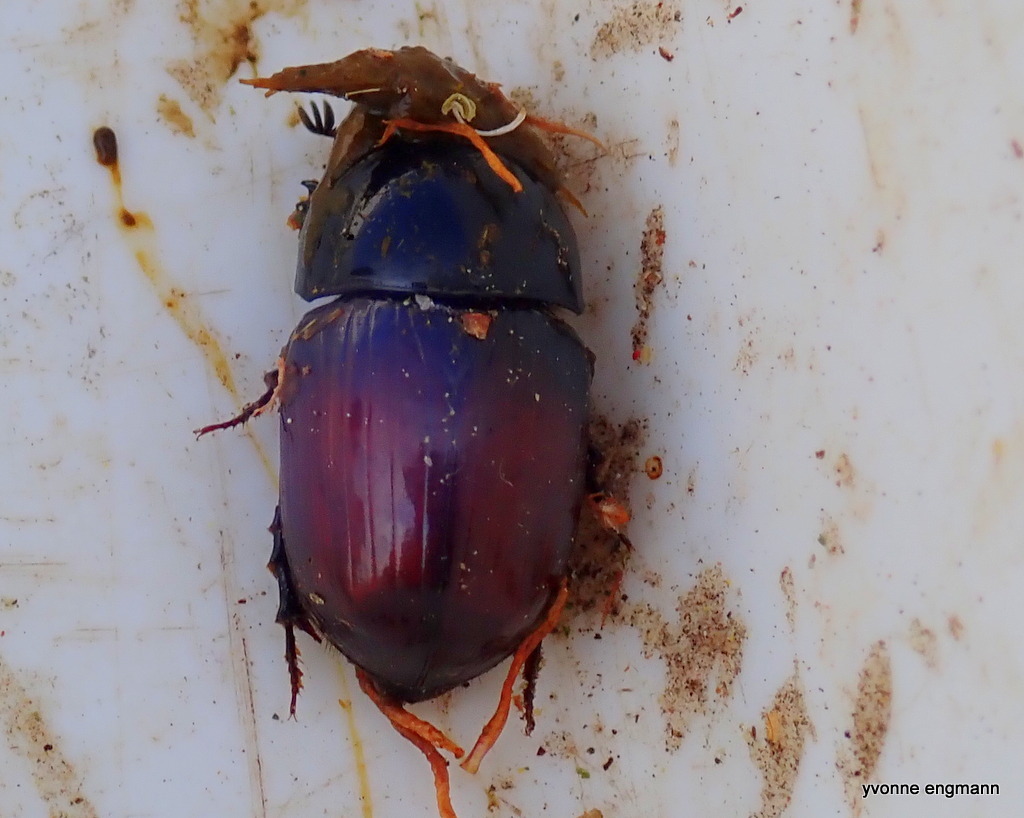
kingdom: Animalia
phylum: Arthropoda
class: Insecta
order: Coleoptera
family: Scarabaeidae
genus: Teuchestes
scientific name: Teuchestes fossor
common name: Digger small dung beetle
